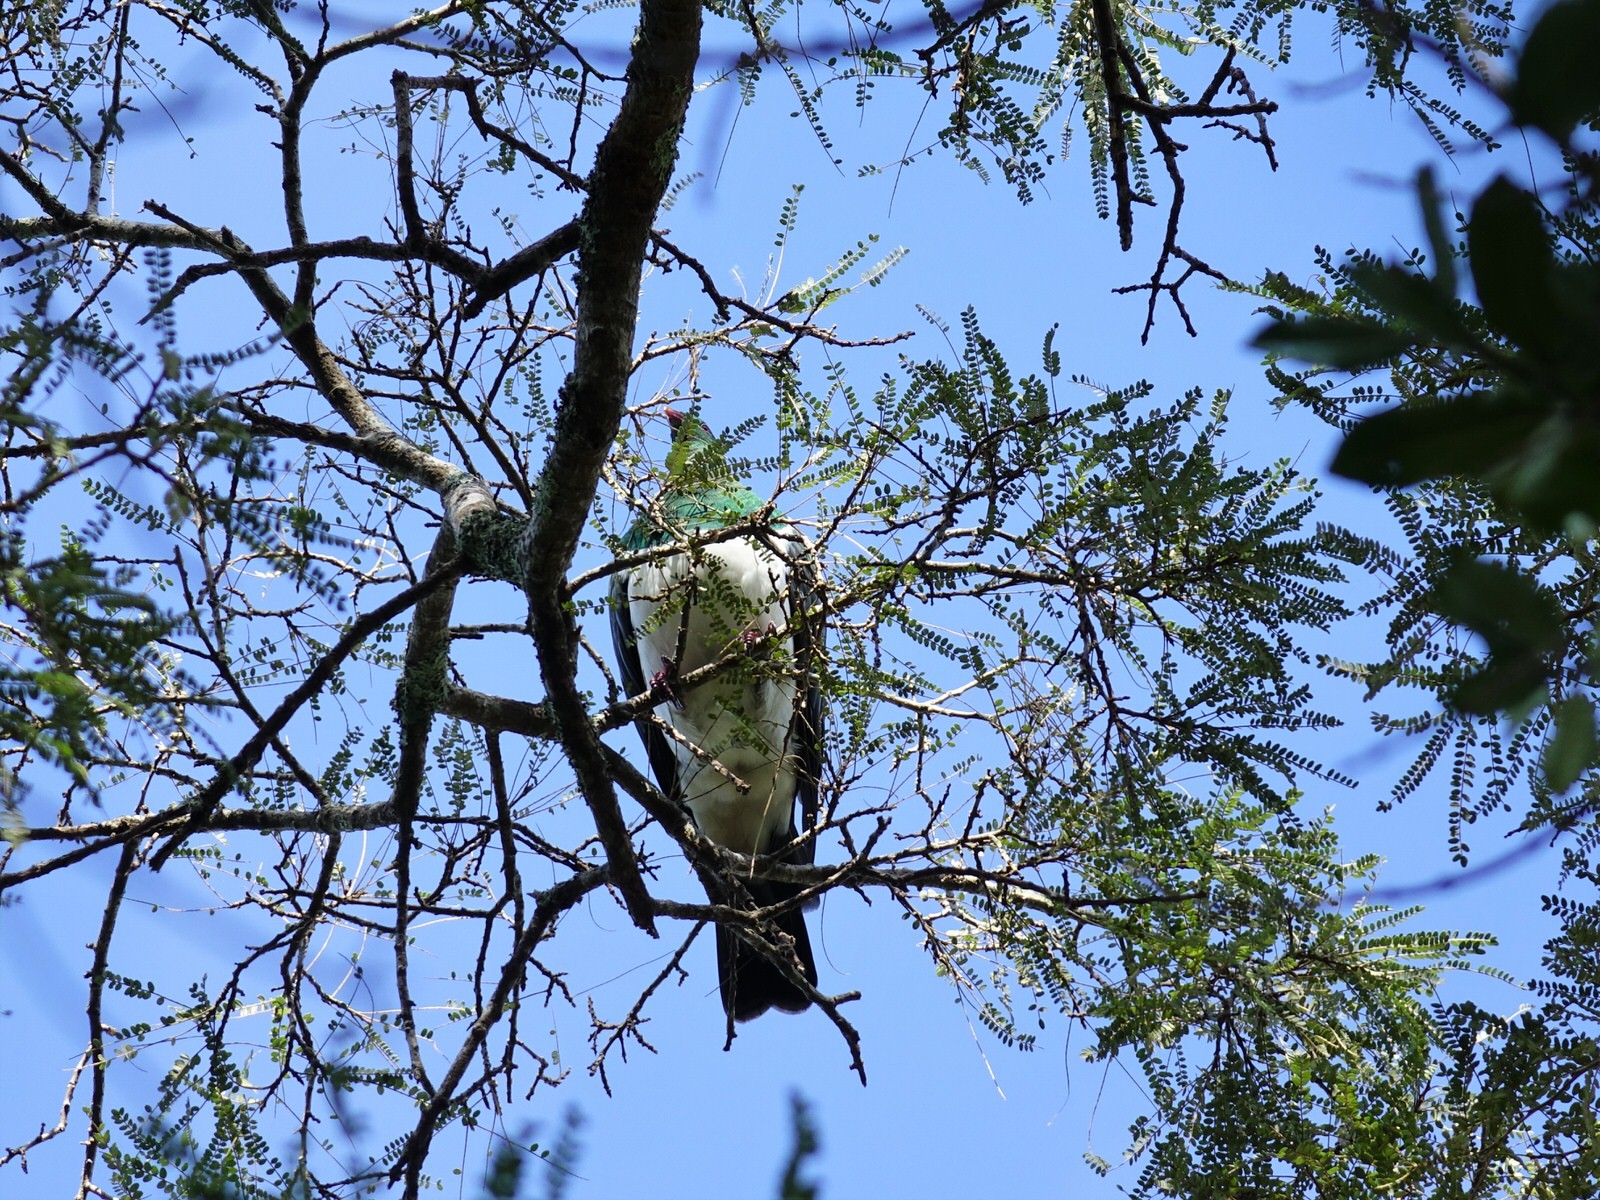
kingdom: Animalia
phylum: Chordata
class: Aves
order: Columbiformes
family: Columbidae
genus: Hemiphaga
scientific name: Hemiphaga novaeseelandiae
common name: New zealand pigeon
